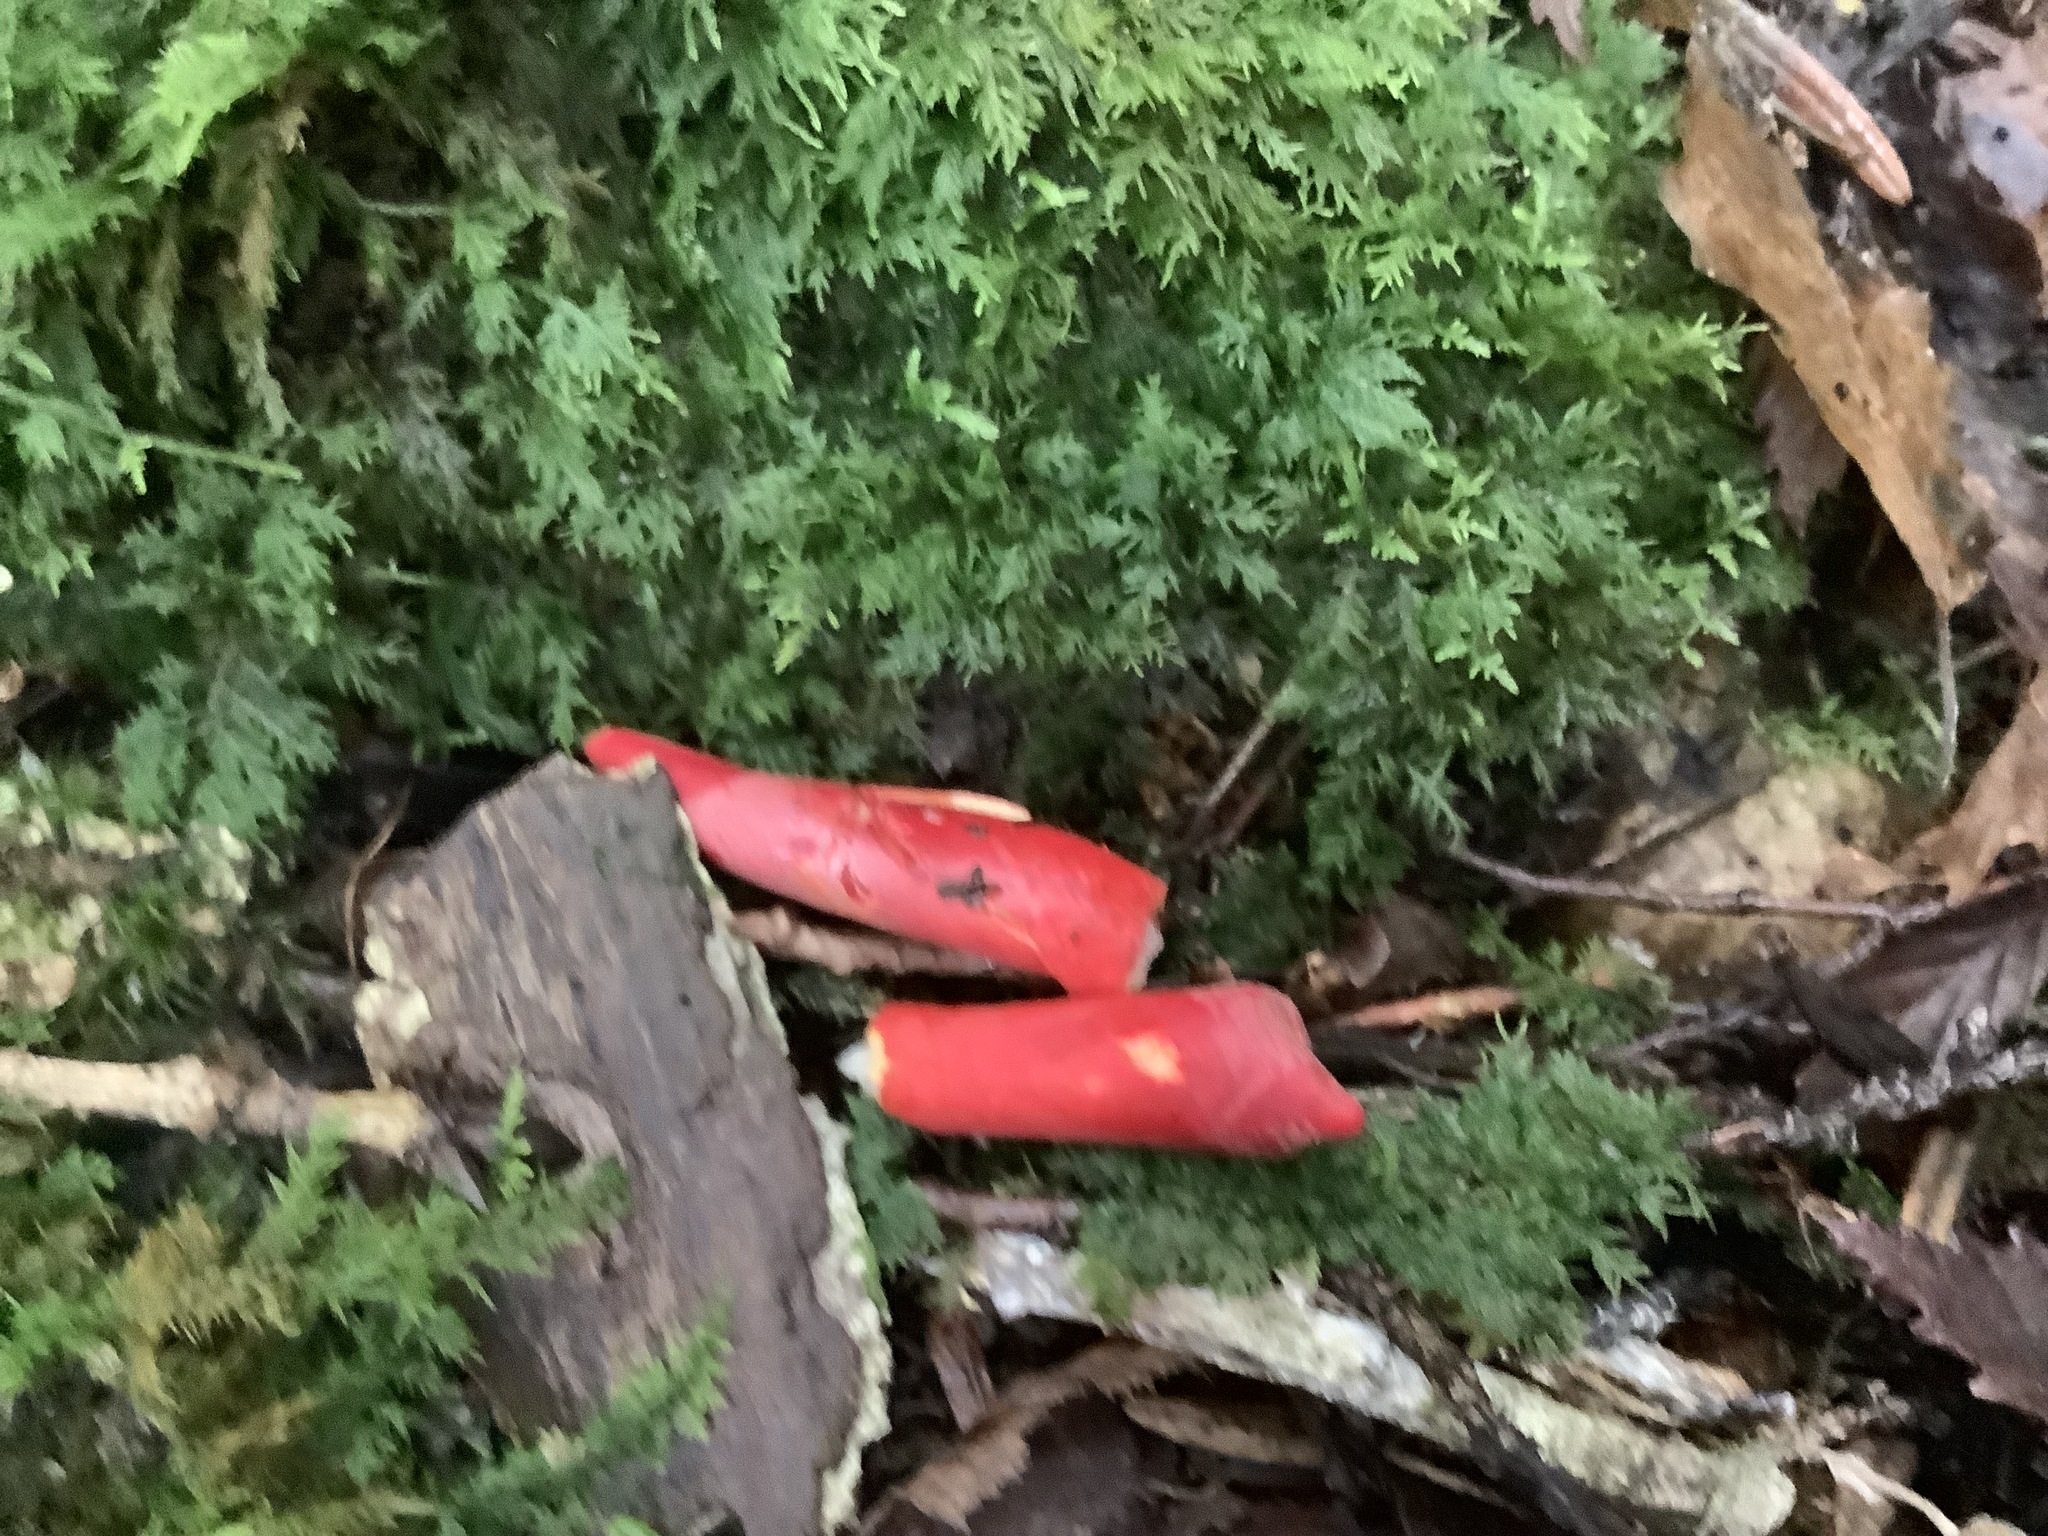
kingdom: Fungi
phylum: Ascomycota
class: Sordariomycetes
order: Hypocreales
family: Hypocreaceae
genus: Trichoderma
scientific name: Trichoderma cornu-damae
